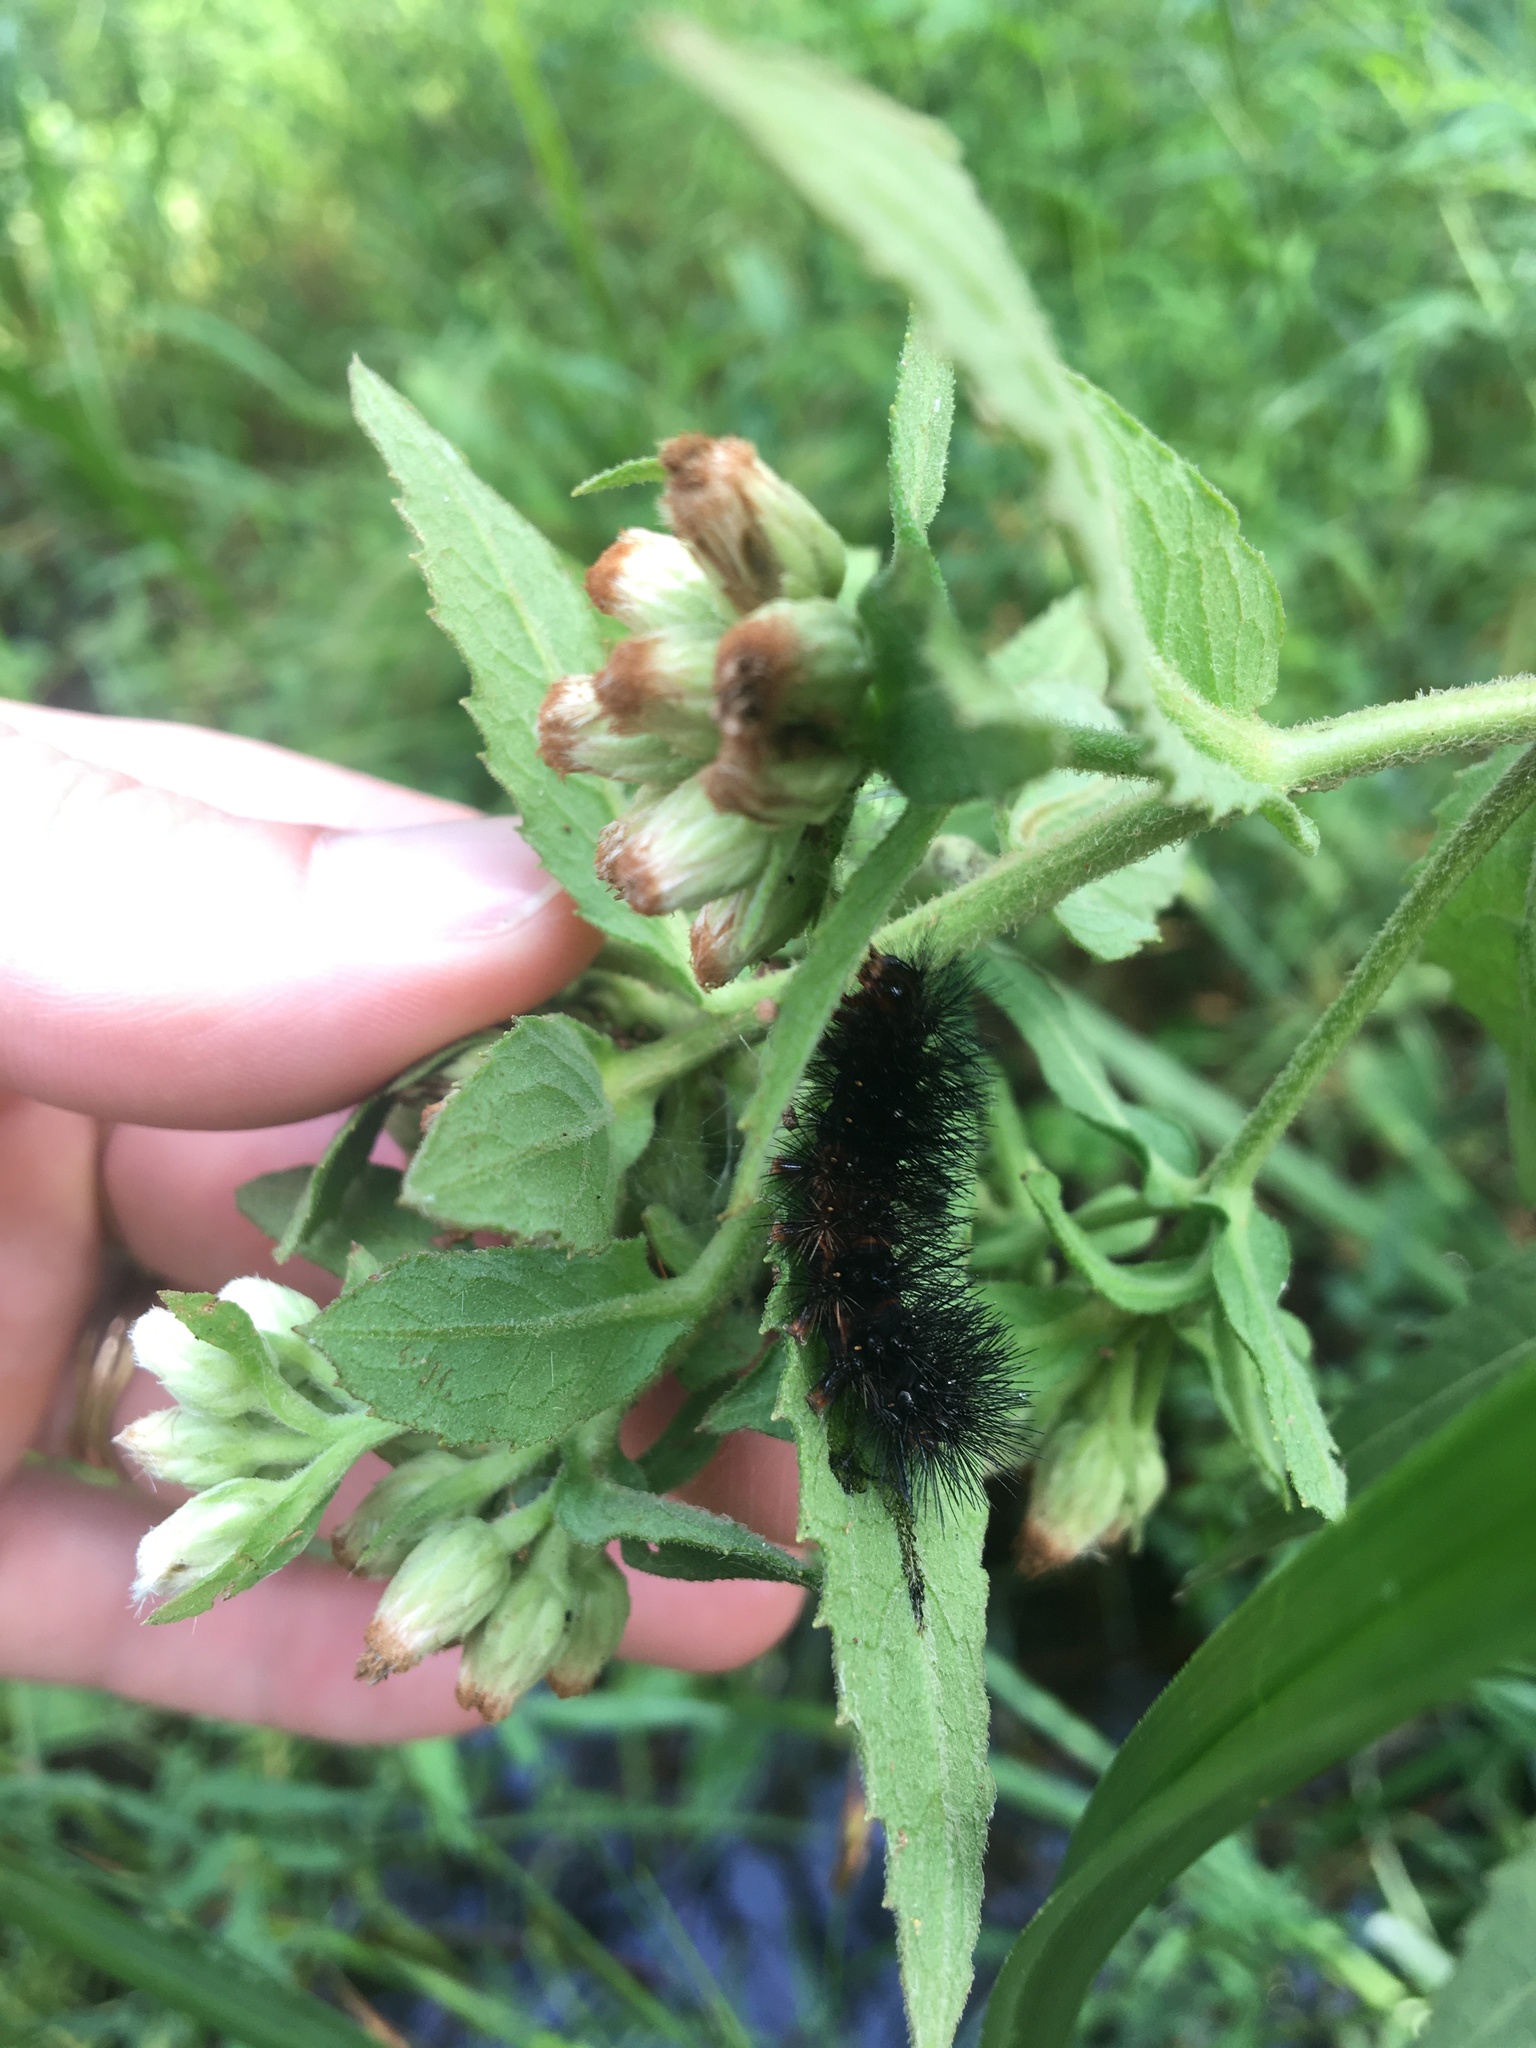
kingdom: Animalia
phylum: Arthropoda
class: Insecta
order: Lepidoptera
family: Erebidae
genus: Hypercompe
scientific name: Hypercompe scribonia
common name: Giant leopard moth
